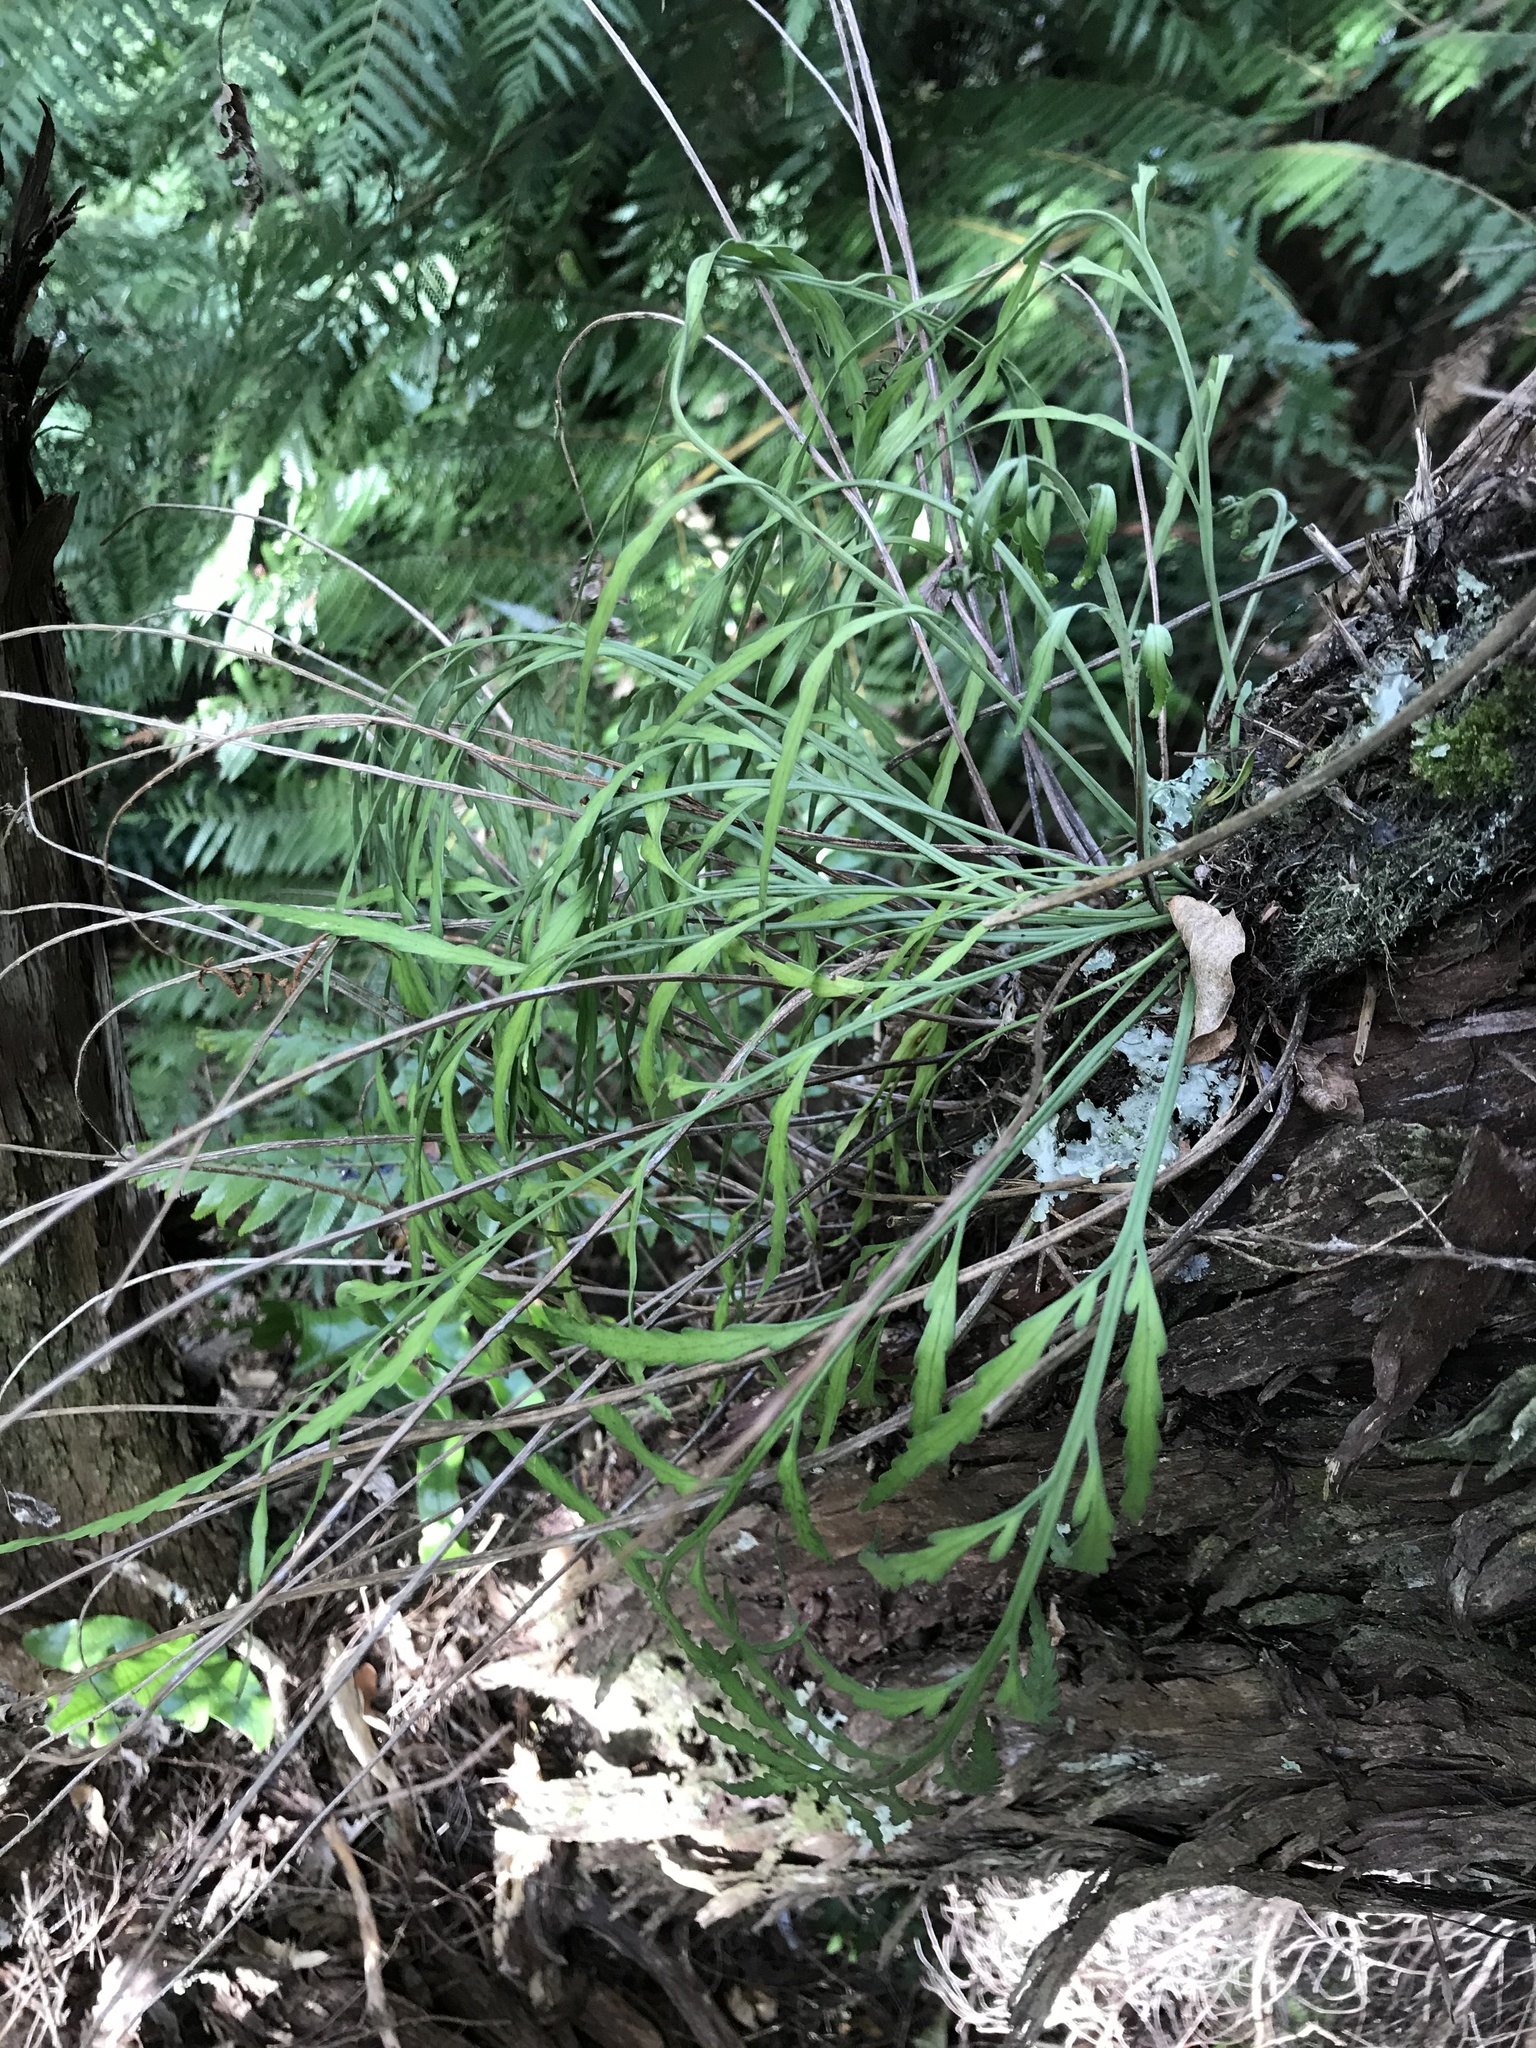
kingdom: Plantae
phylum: Tracheophyta
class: Polypodiopsida
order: Polypodiales
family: Aspleniaceae
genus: Asplenium
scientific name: Asplenium flaccidum
